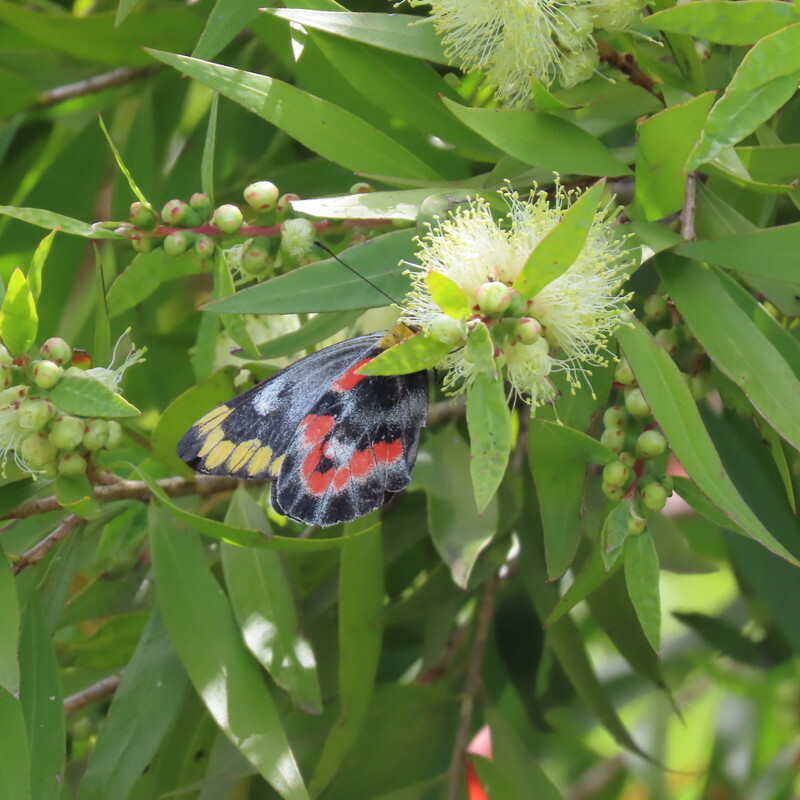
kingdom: Animalia
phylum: Arthropoda
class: Insecta
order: Lepidoptera
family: Pieridae
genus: Delias
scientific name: Delias harpalyce
